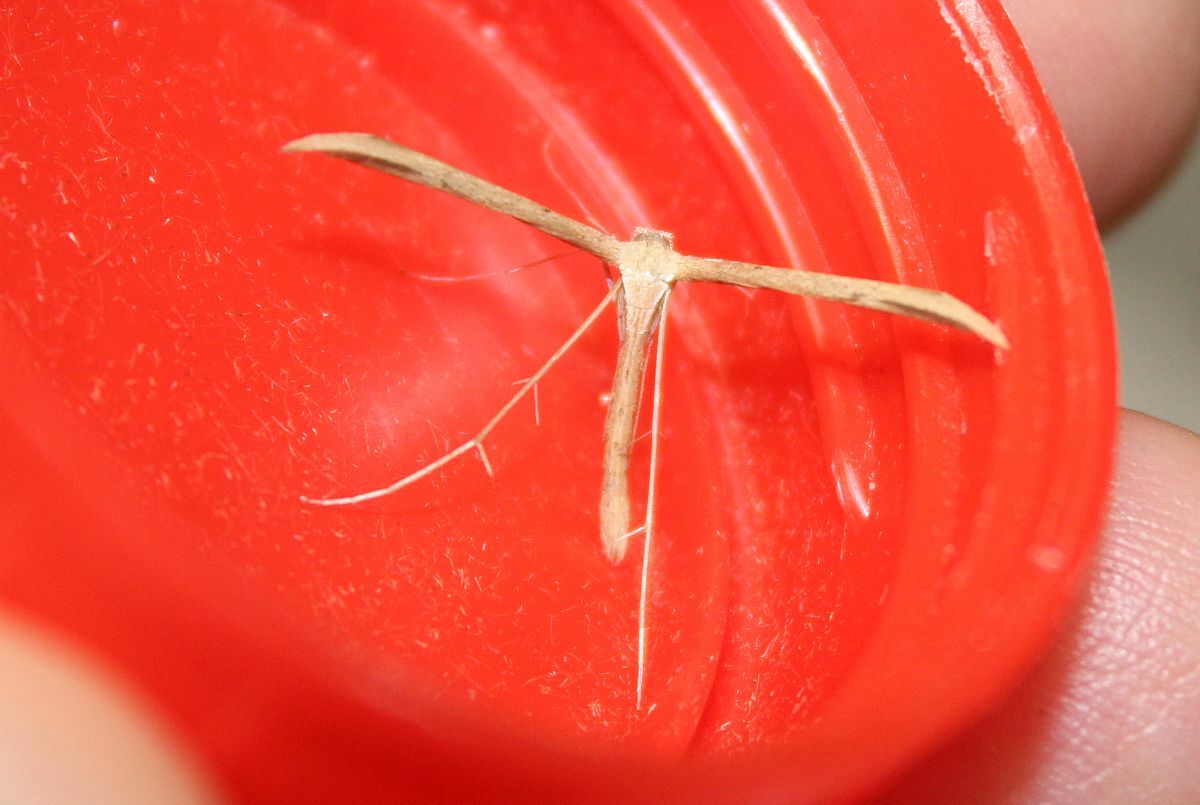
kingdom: Animalia
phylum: Arthropoda
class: Insecta
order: Lepidoptera
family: Pterophoridae
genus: Emmelina
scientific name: Emmelina monodactyla
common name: Common plume
